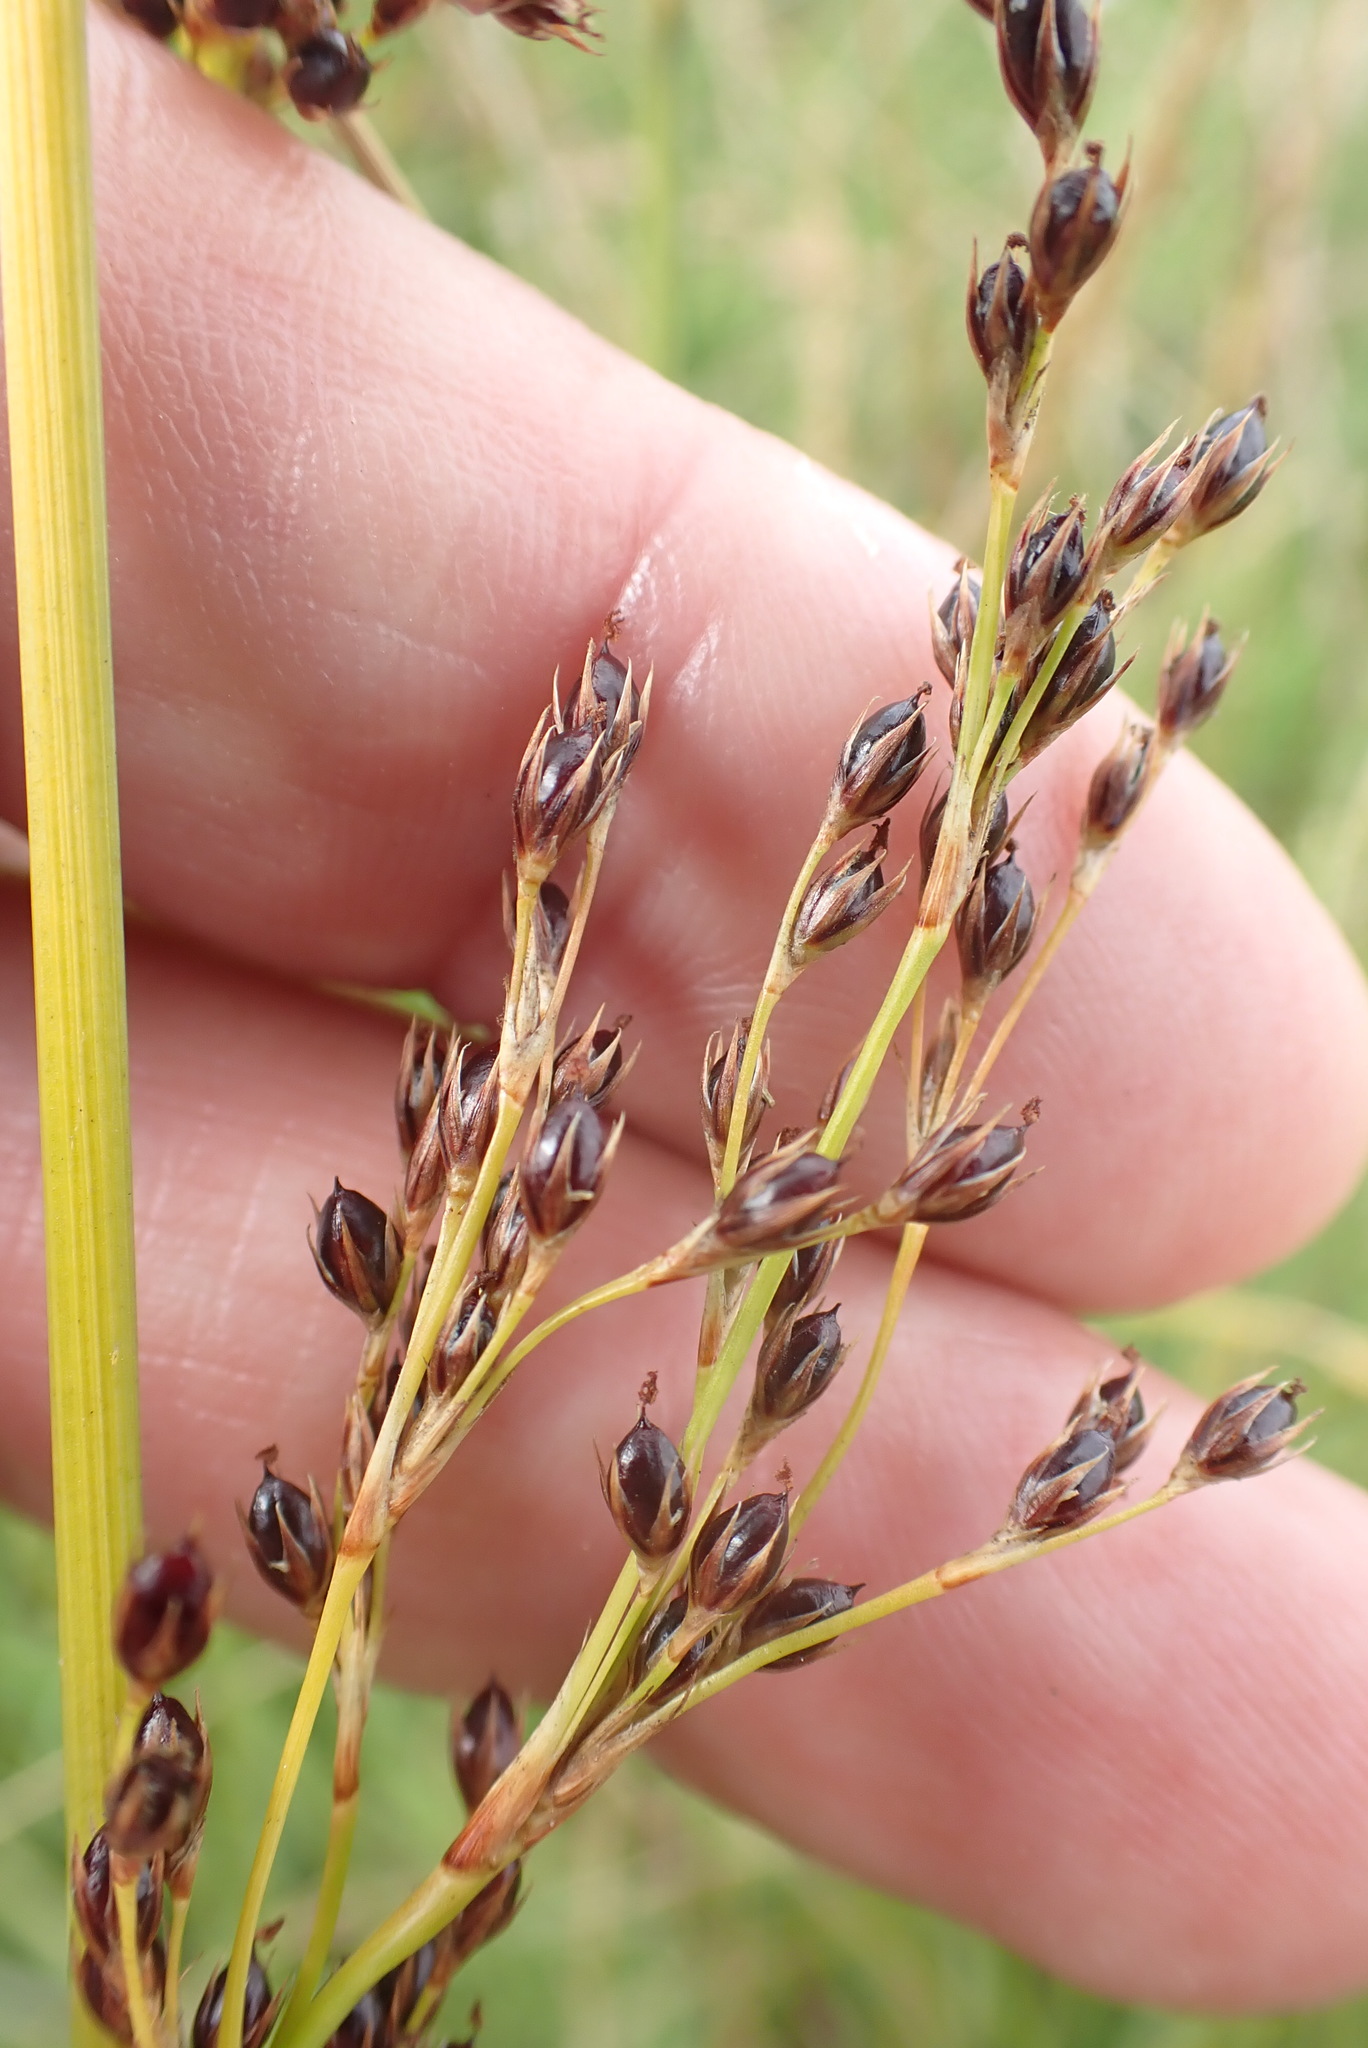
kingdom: Plantae
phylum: Tracheophyta
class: Liliopsida
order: Poales
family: Juncaceae
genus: Juncus
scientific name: Juncus inflexus
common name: Hard rush
